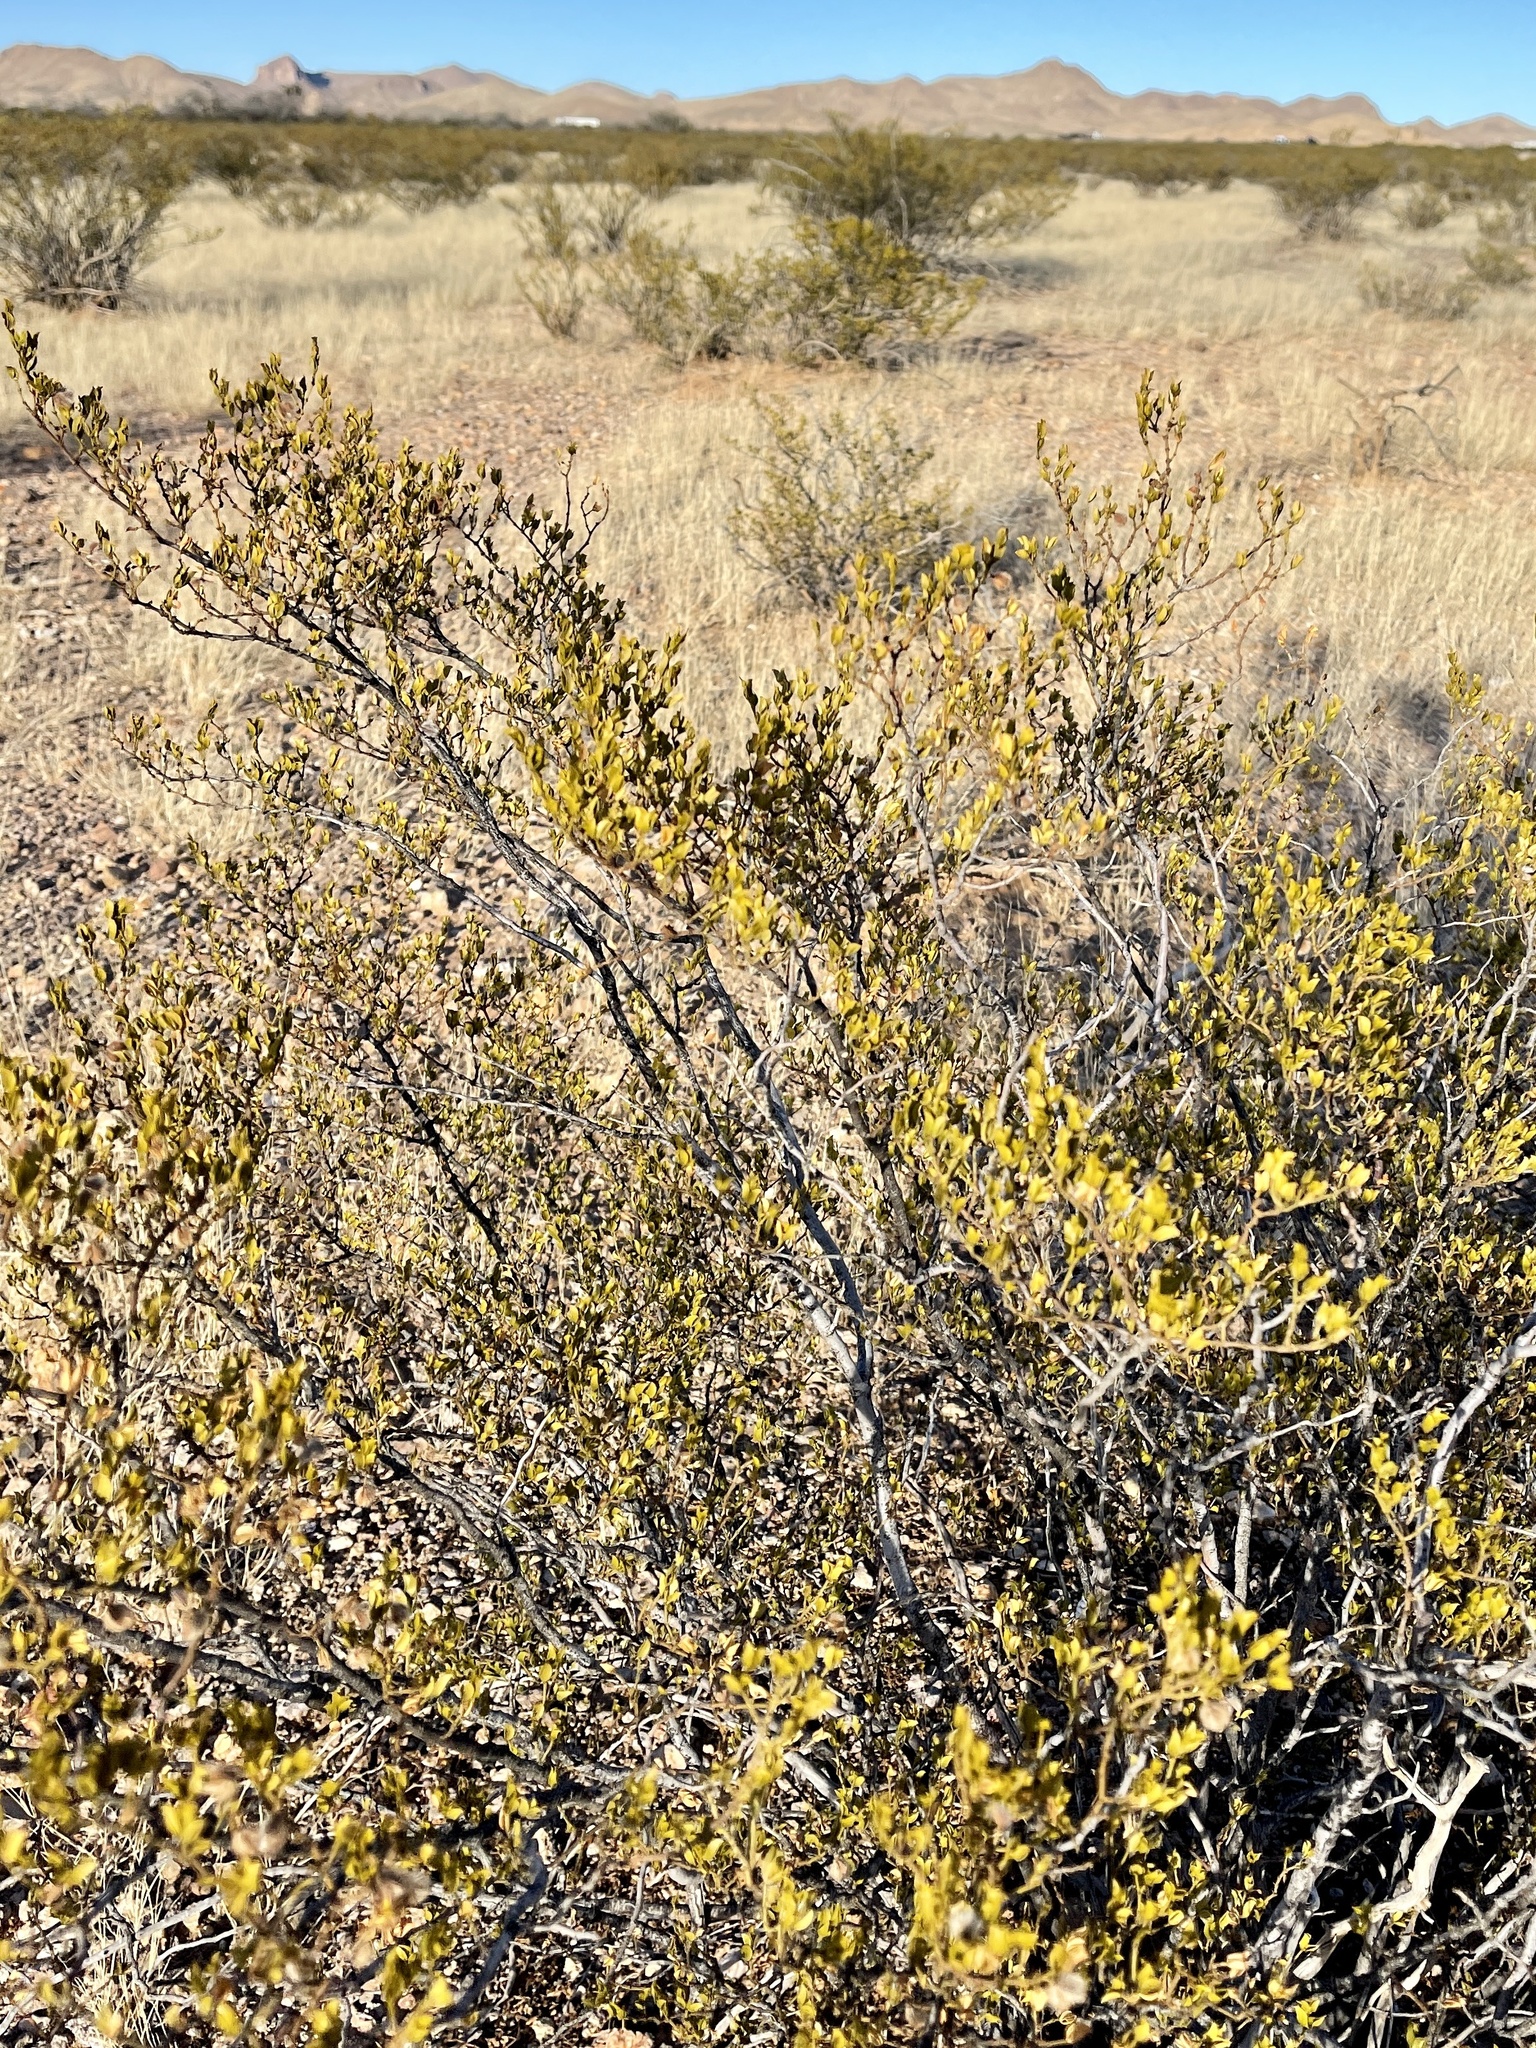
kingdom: Plantae
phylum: Tracheophyta
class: Magnoliopsida
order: Zygophyllales
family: Zygophyllaceae
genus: Larrea
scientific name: Larrea tridentata
